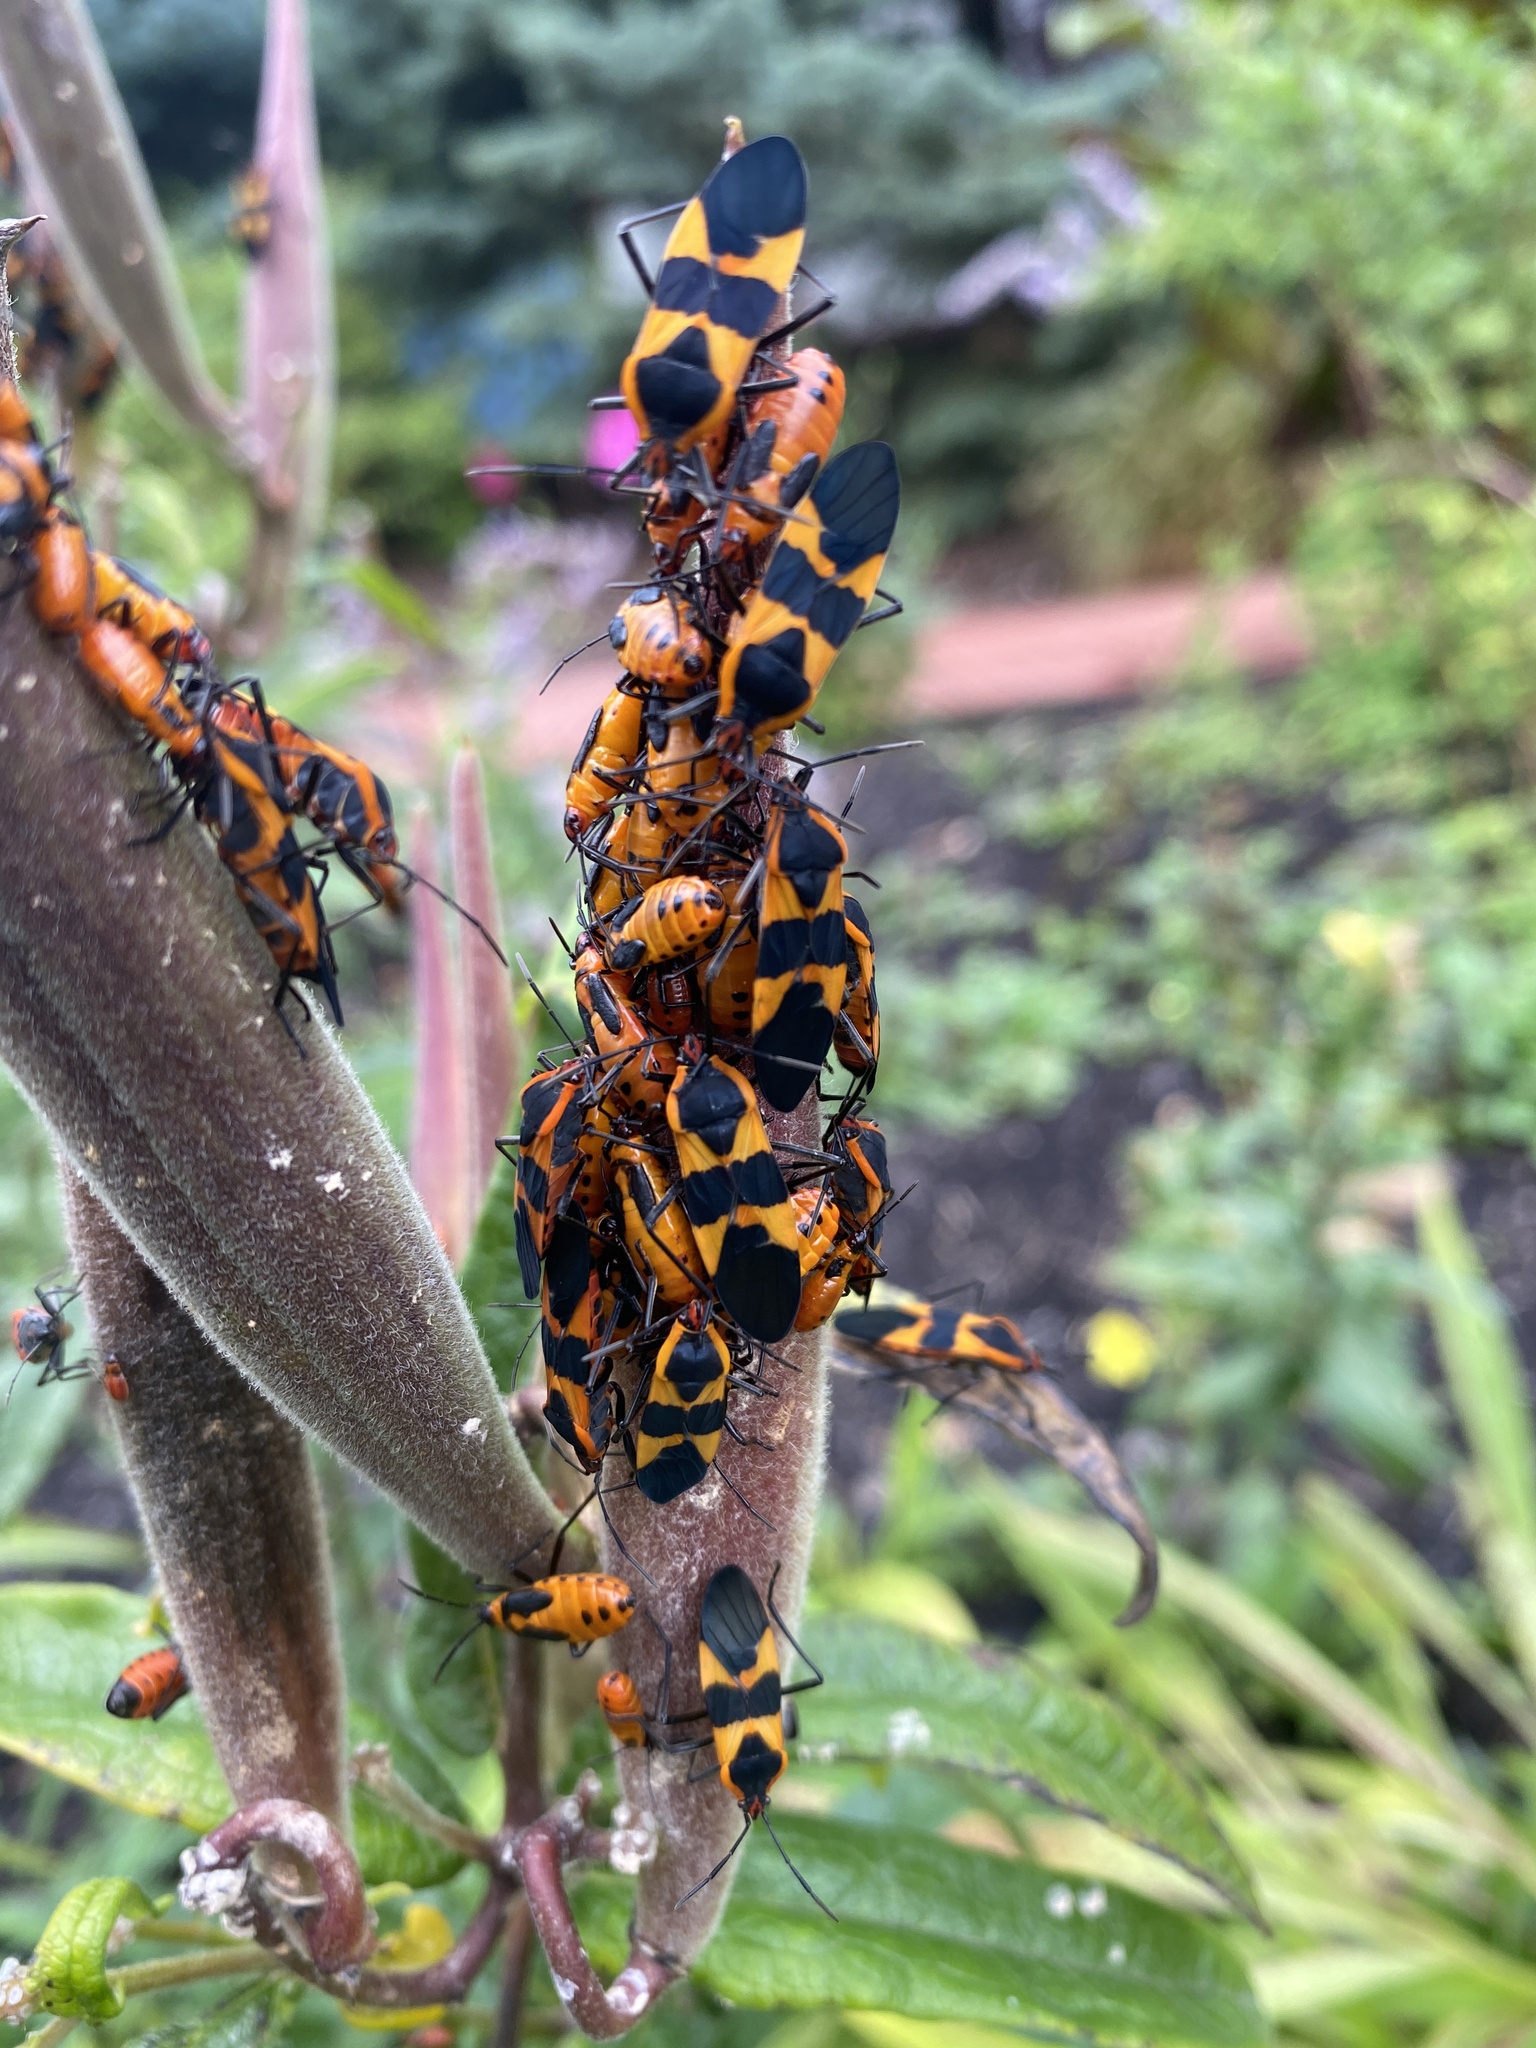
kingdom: Animalia
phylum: Arthropoda
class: Insecta
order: Hemiptera
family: Lygaeidae
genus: Oncopeltus
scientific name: Oncopeltus fasciatus
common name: Large milkweed bug
